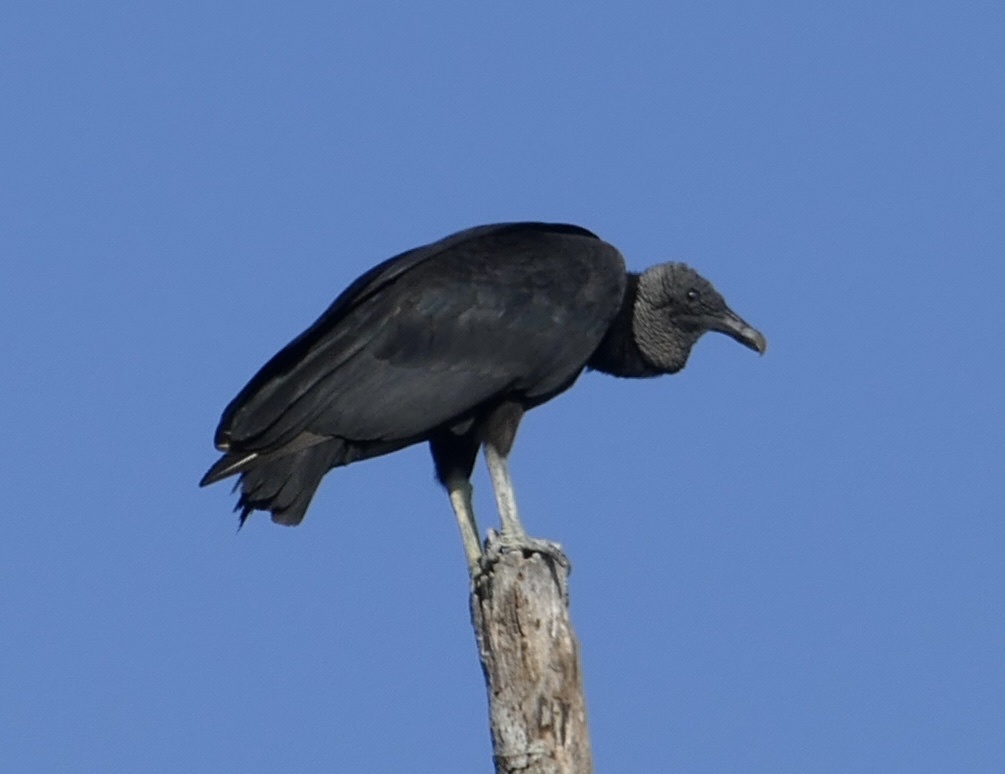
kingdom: Animalia
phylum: Chordata
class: Aves
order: Accipitriformes
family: Cathartidae
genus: Coragyps
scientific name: Coragyps atratus
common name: Black vulture
